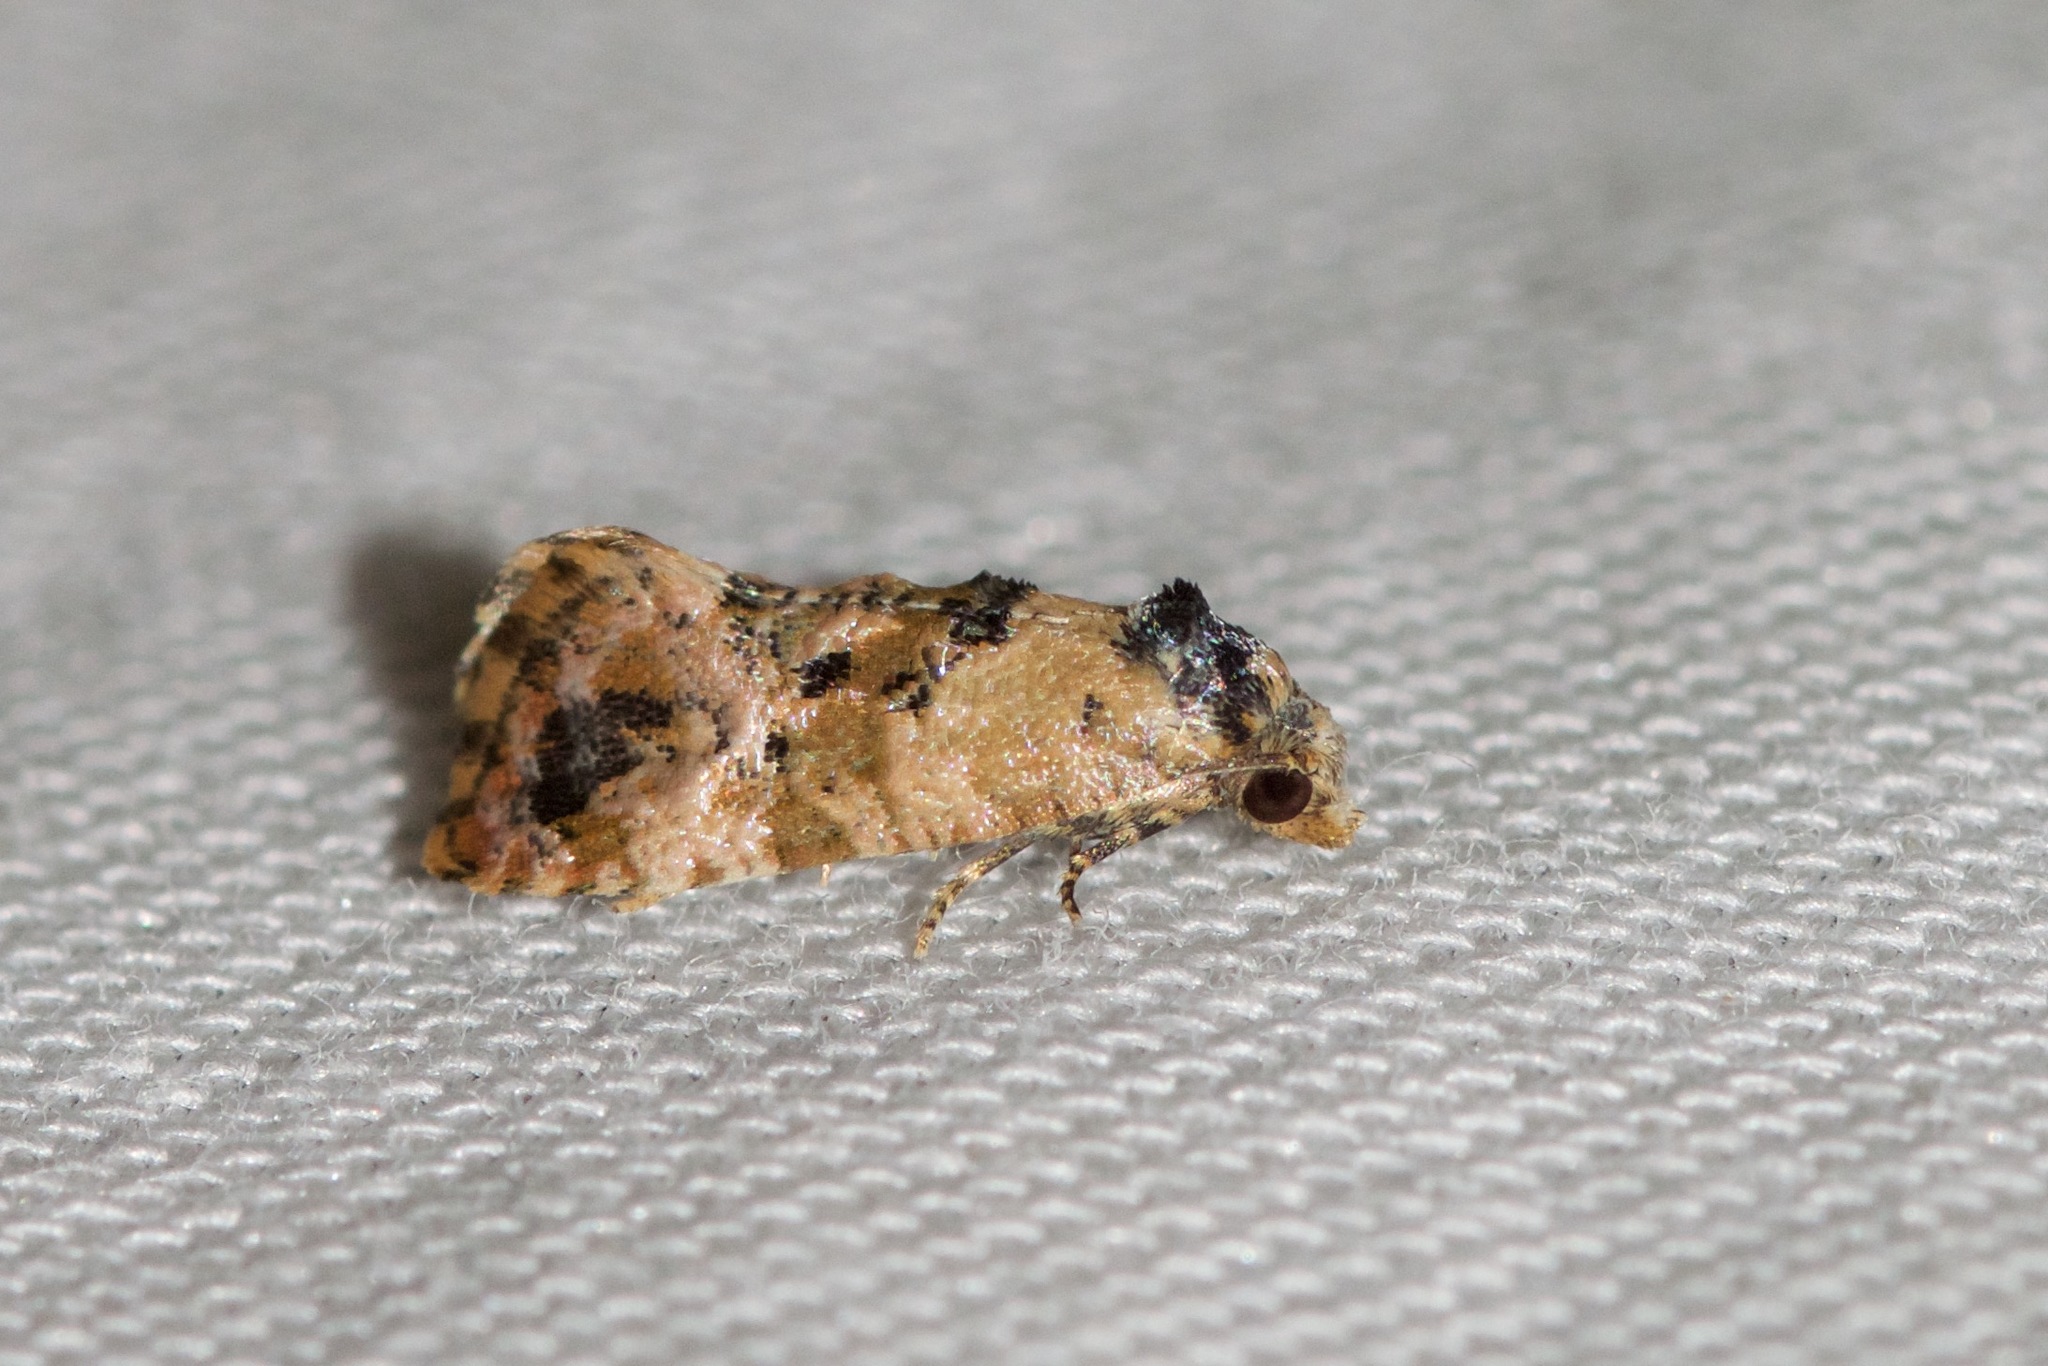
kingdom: Animalia
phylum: Arthropoda
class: Insecta
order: Lepidoptera
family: Tortricidae
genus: Cochylis
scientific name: Cochylis Cochylichroa hoffmanana
